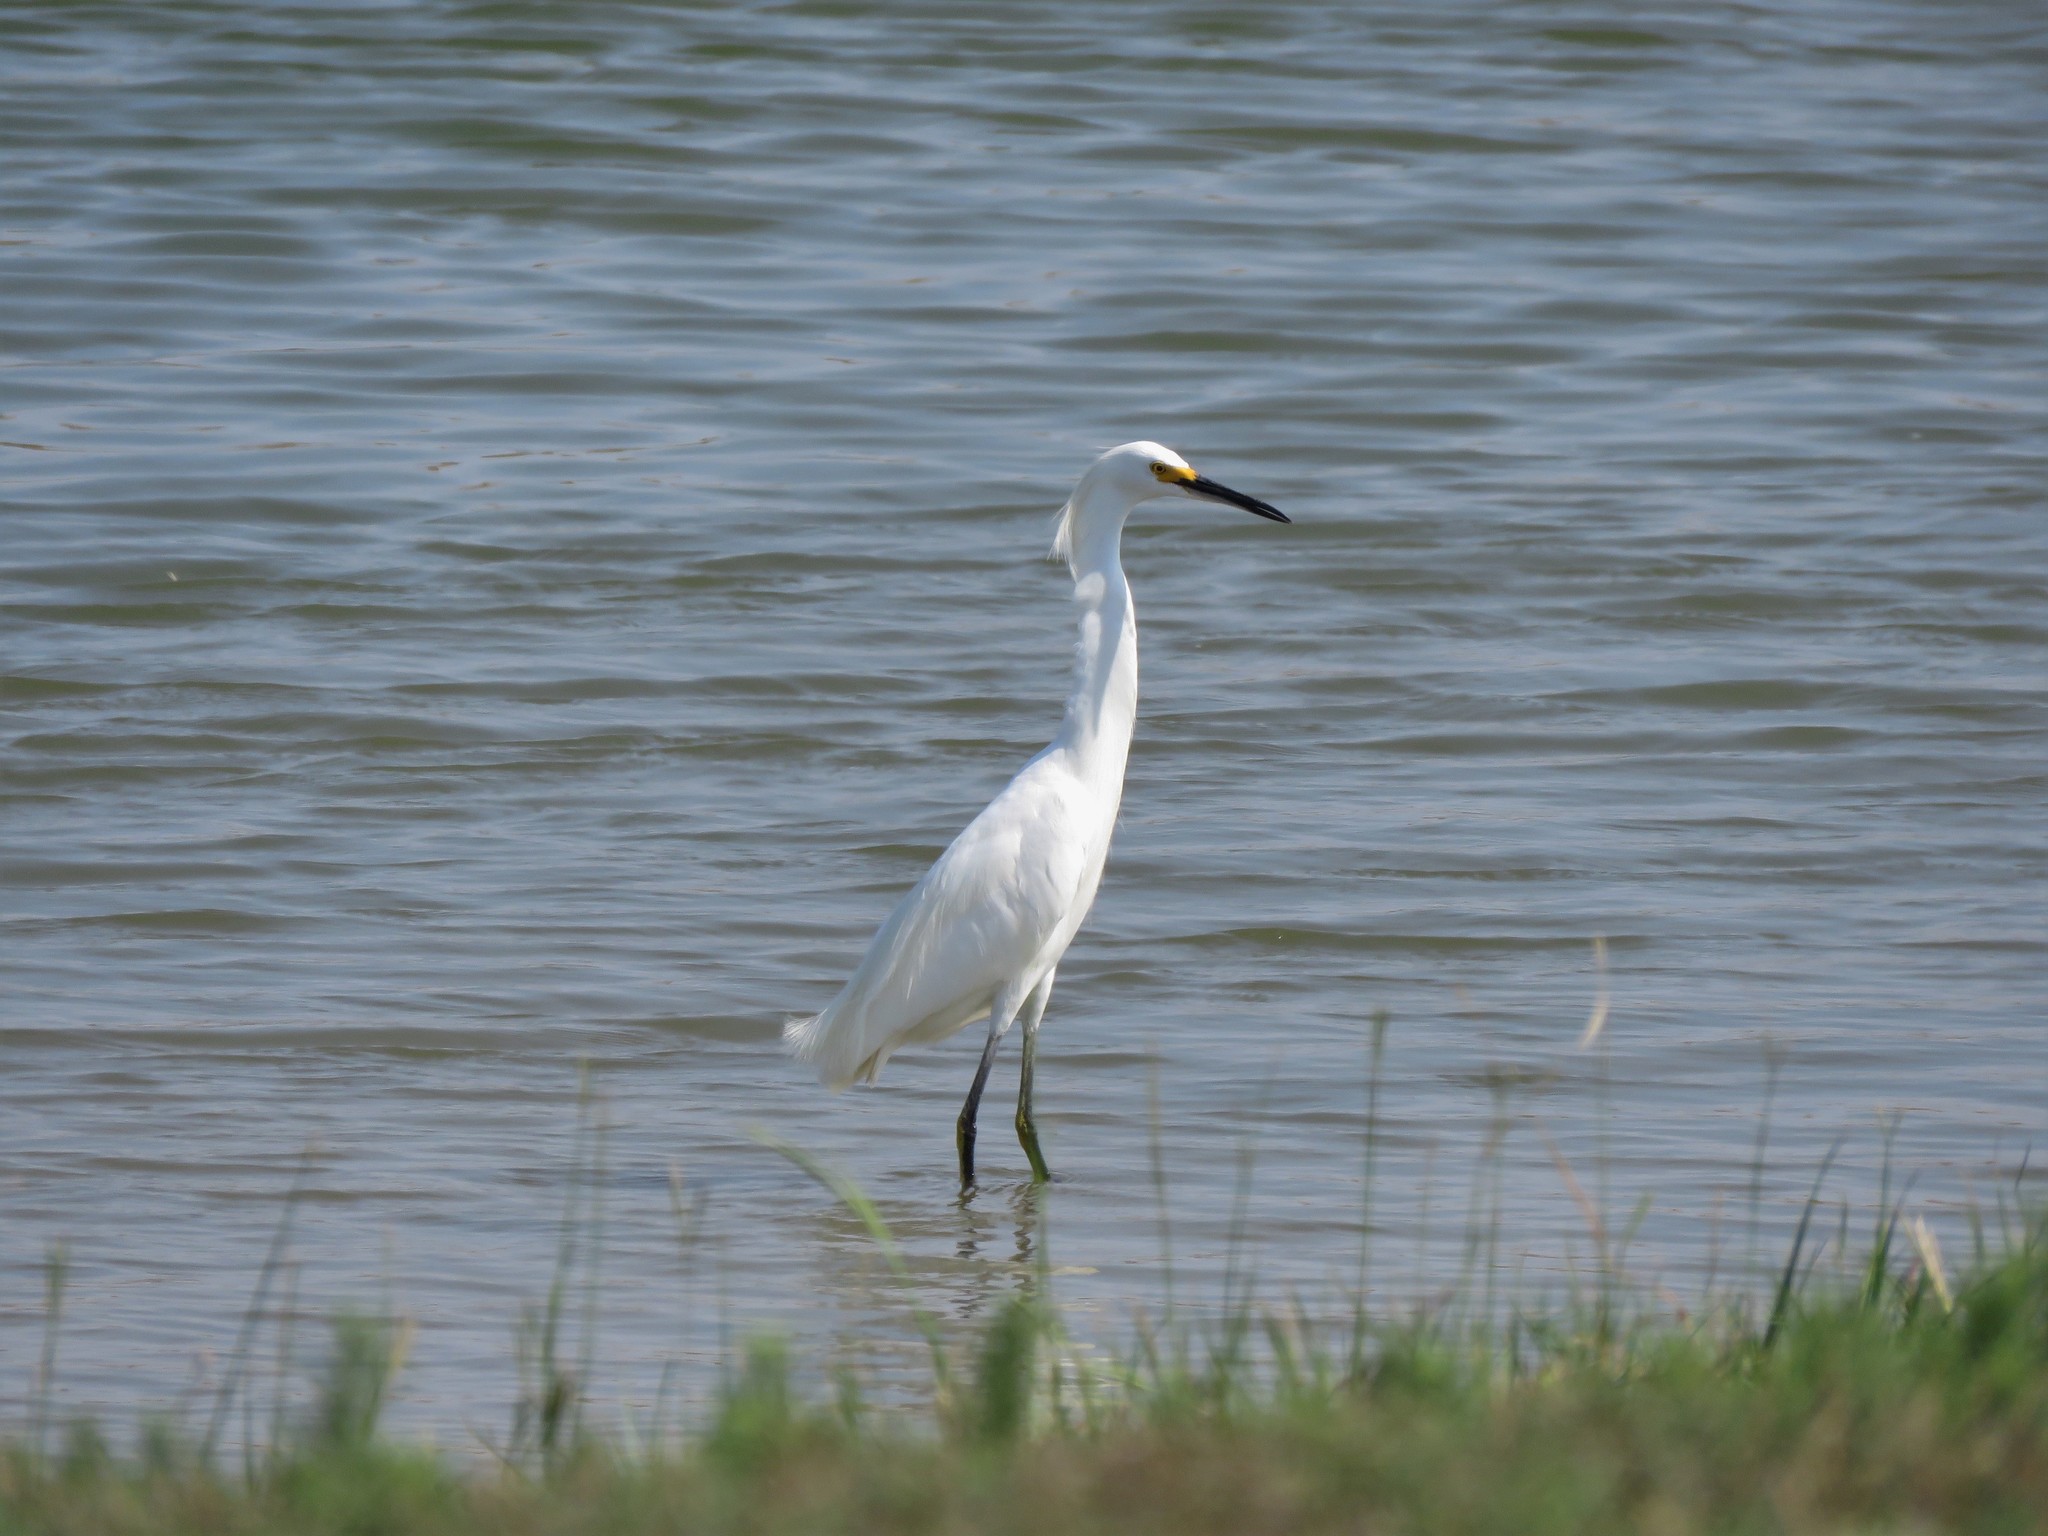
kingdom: Animalia
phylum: Chordata
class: Aves
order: Pelecaniformes
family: Ardeidae
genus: Egretta
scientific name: Egretta thula
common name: Snowy egret
